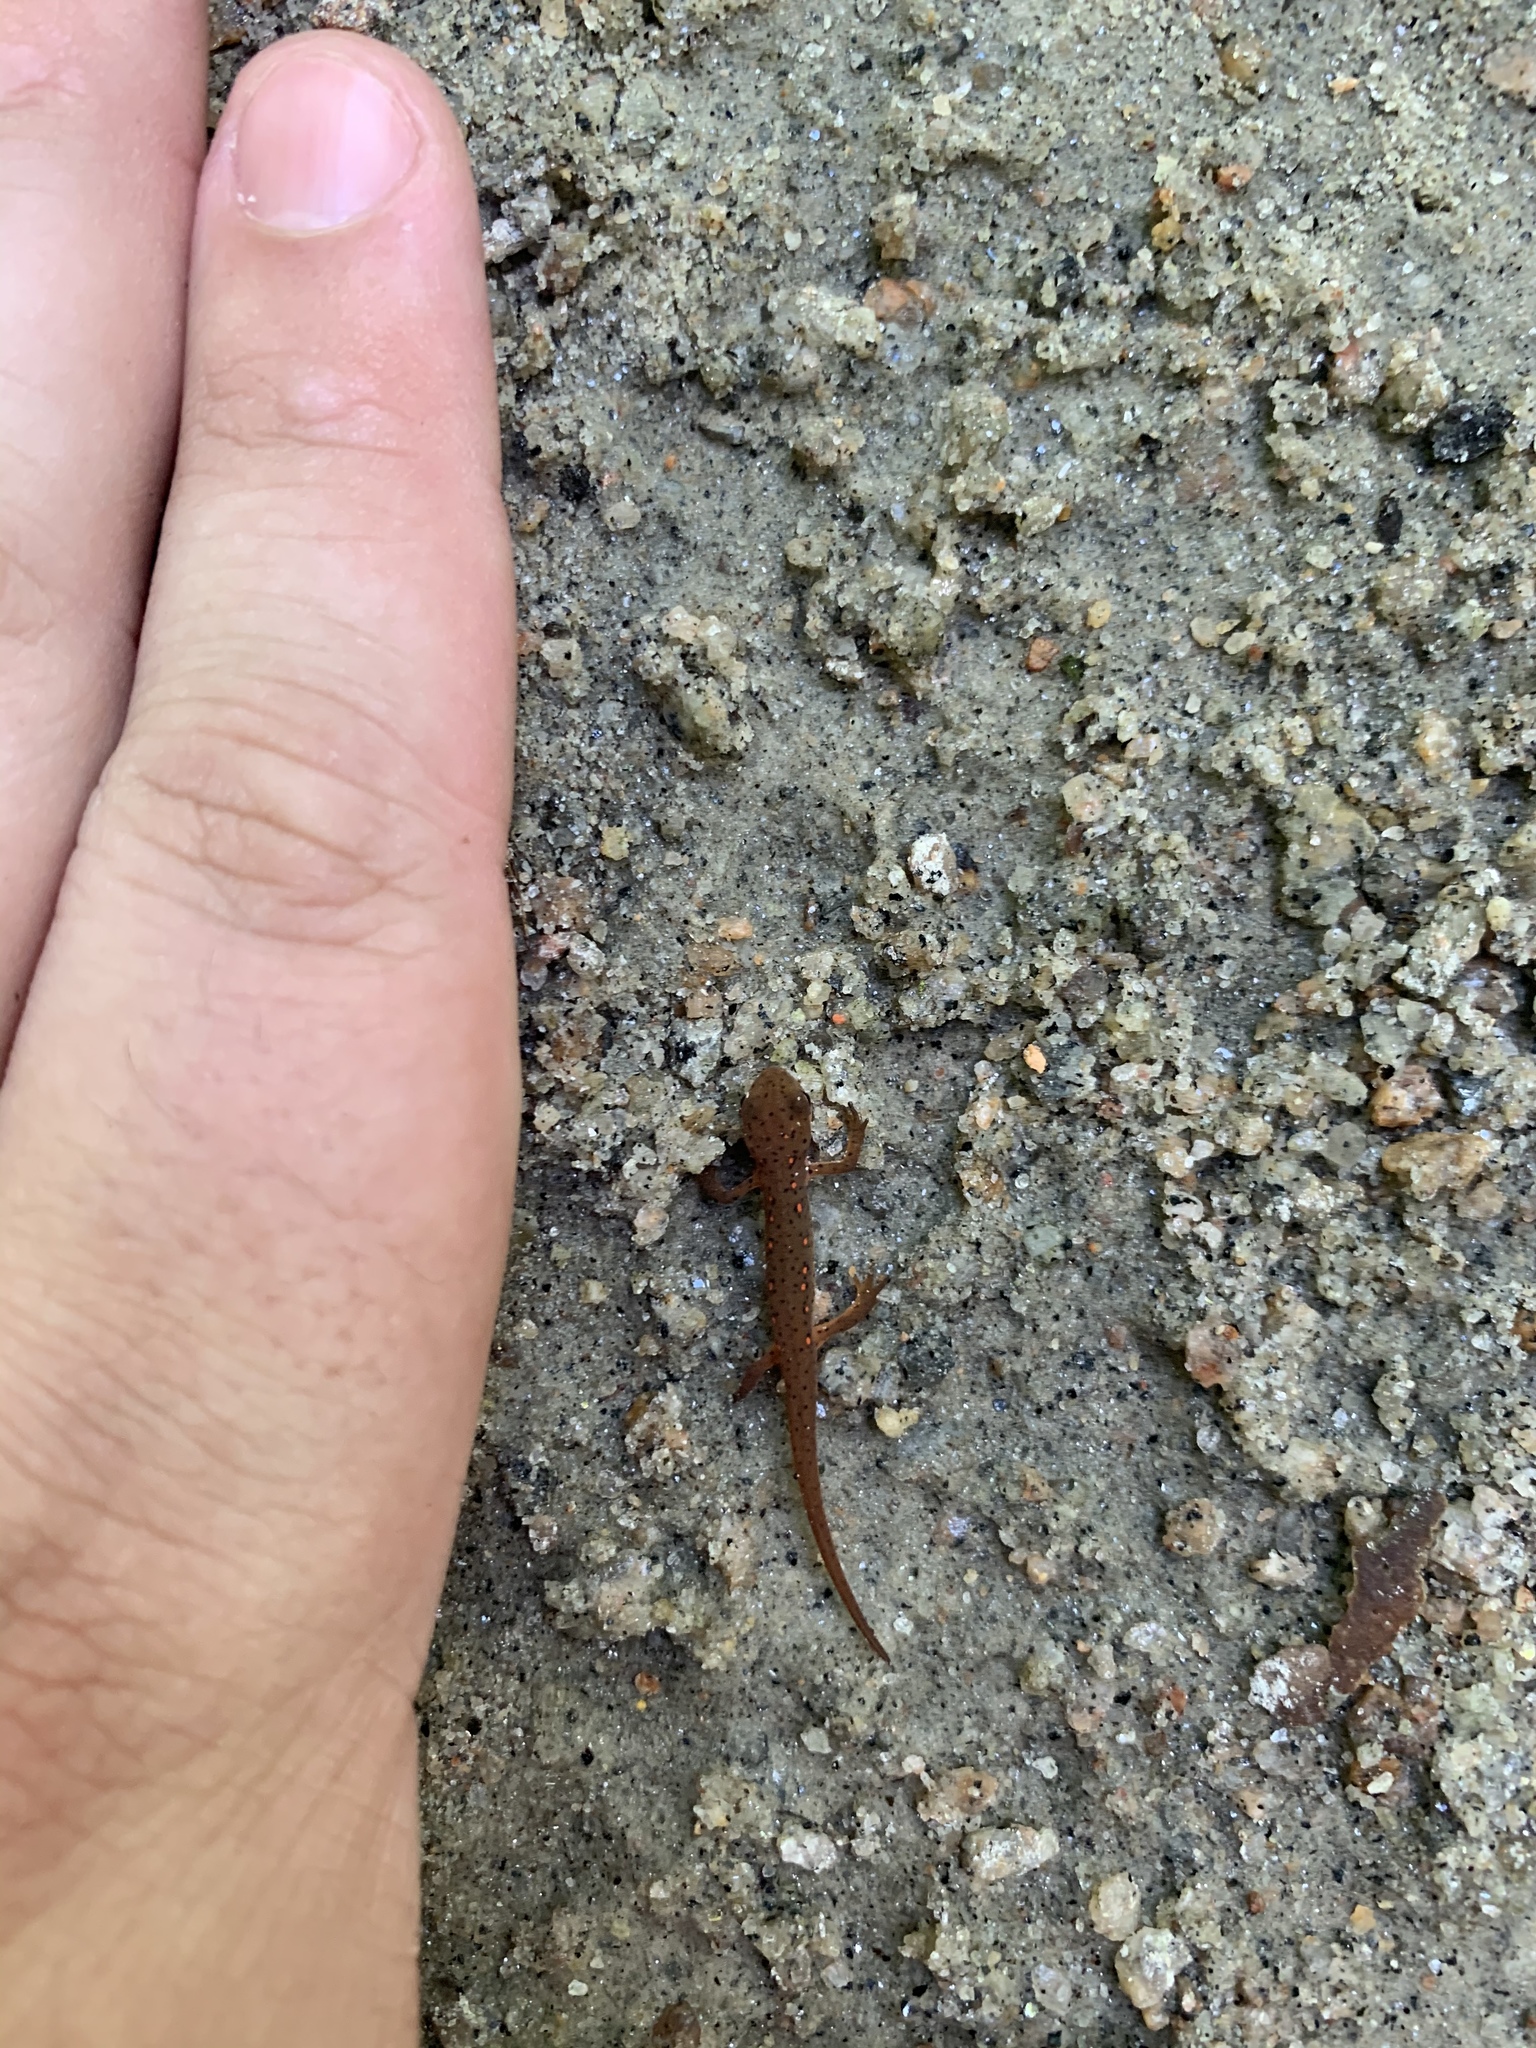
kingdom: Animalia
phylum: Chordata
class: Amphibia
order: Caudata
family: Salamandridae
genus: Notophthalmus
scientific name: Notophthalmus viridescens
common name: Eastern newt
